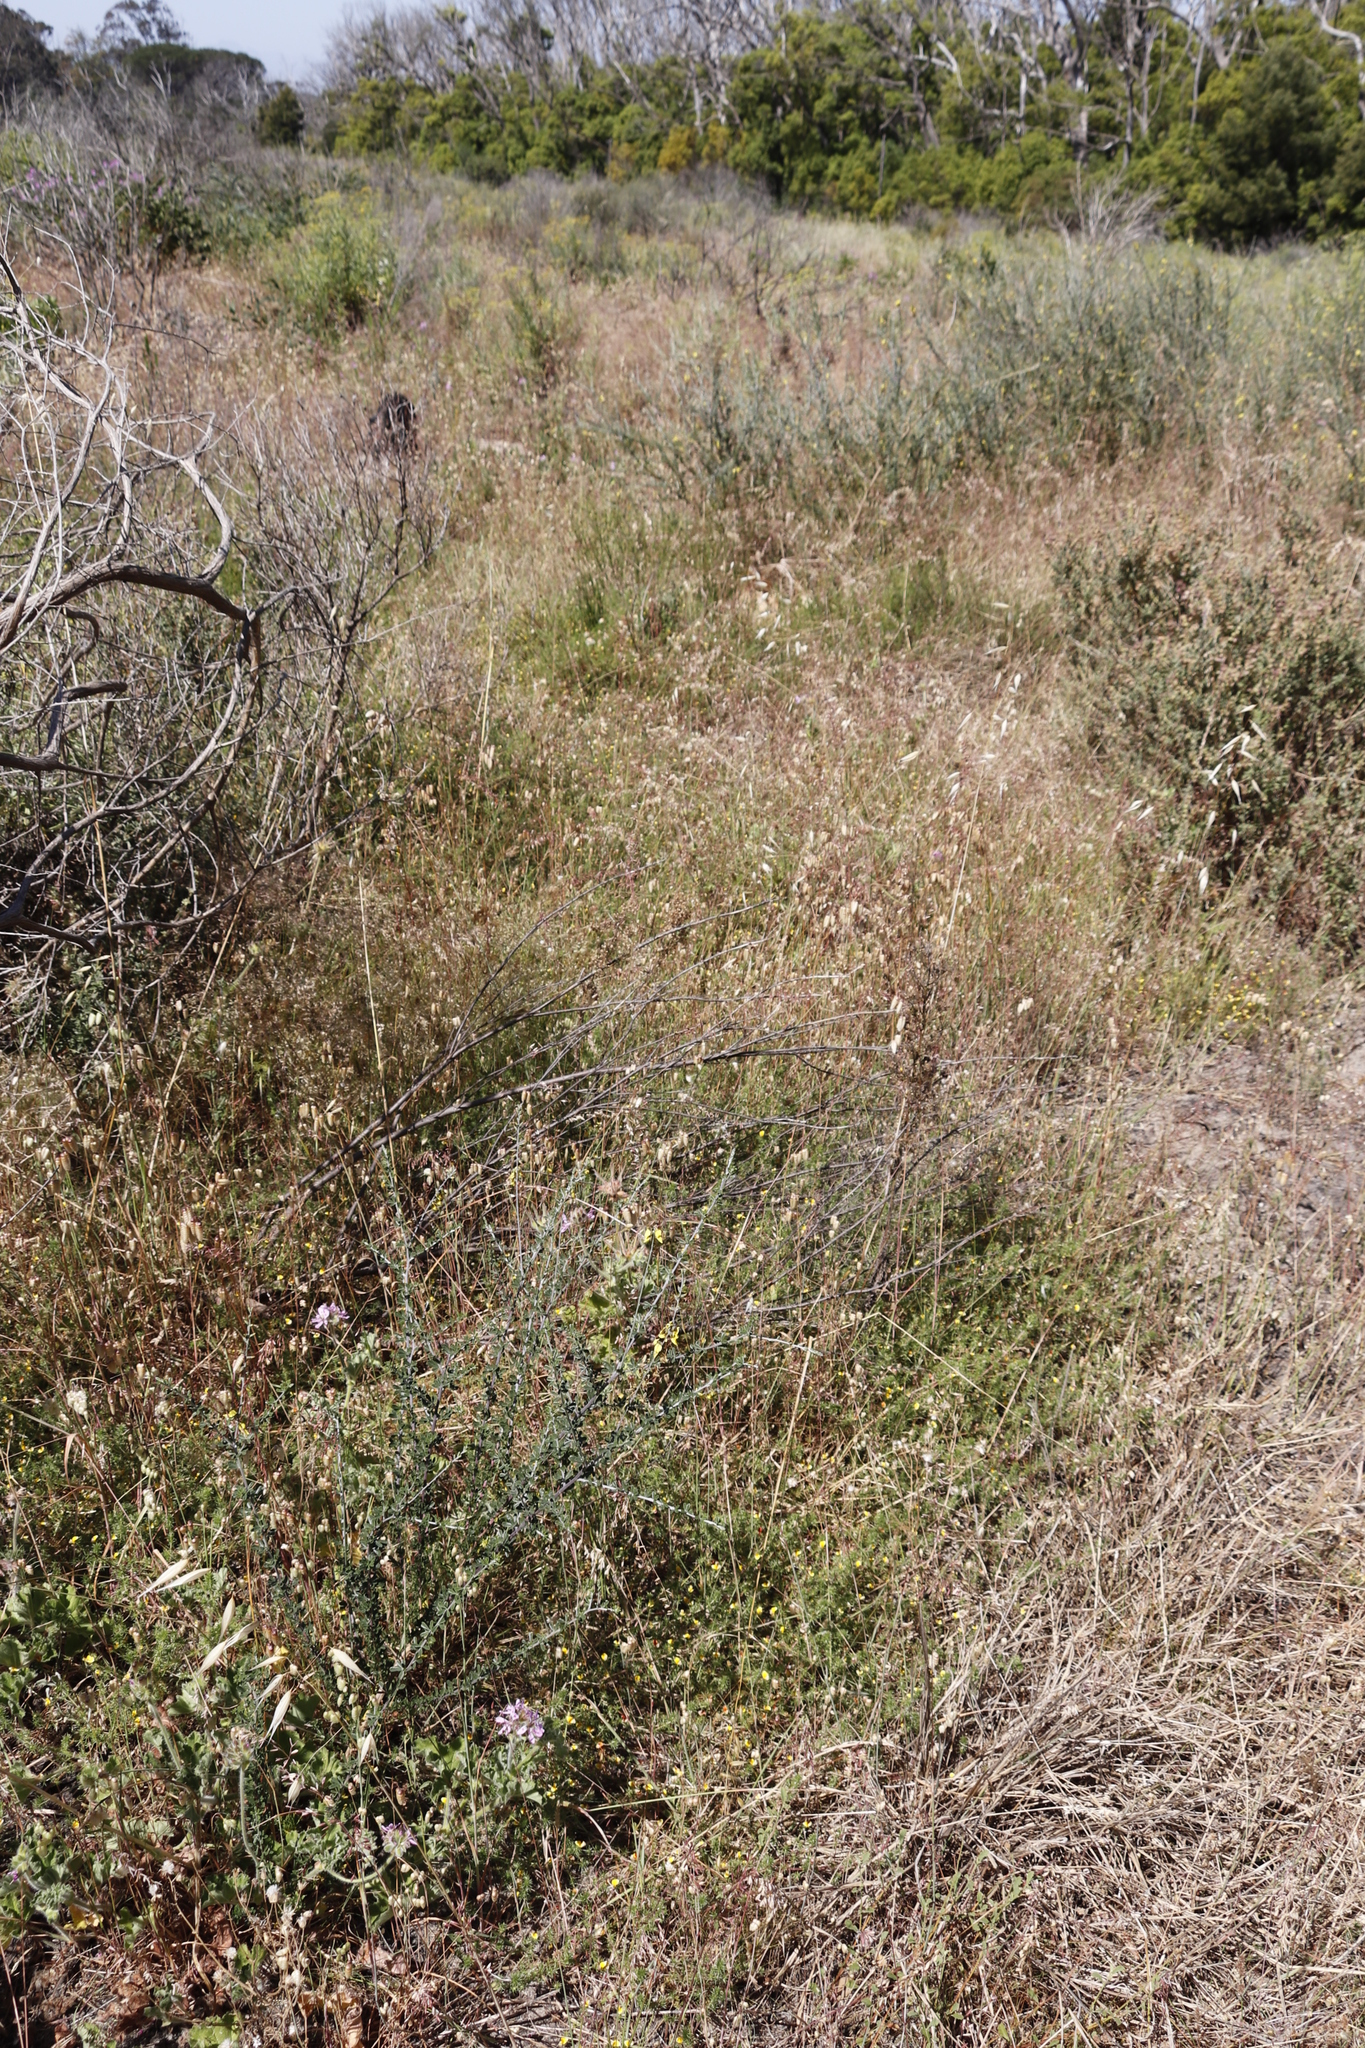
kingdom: Plantae
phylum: Tracheophyta
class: Liliopsida
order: Poales
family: Poaceae
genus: Avena
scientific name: Avena fatua
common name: Wild oat
